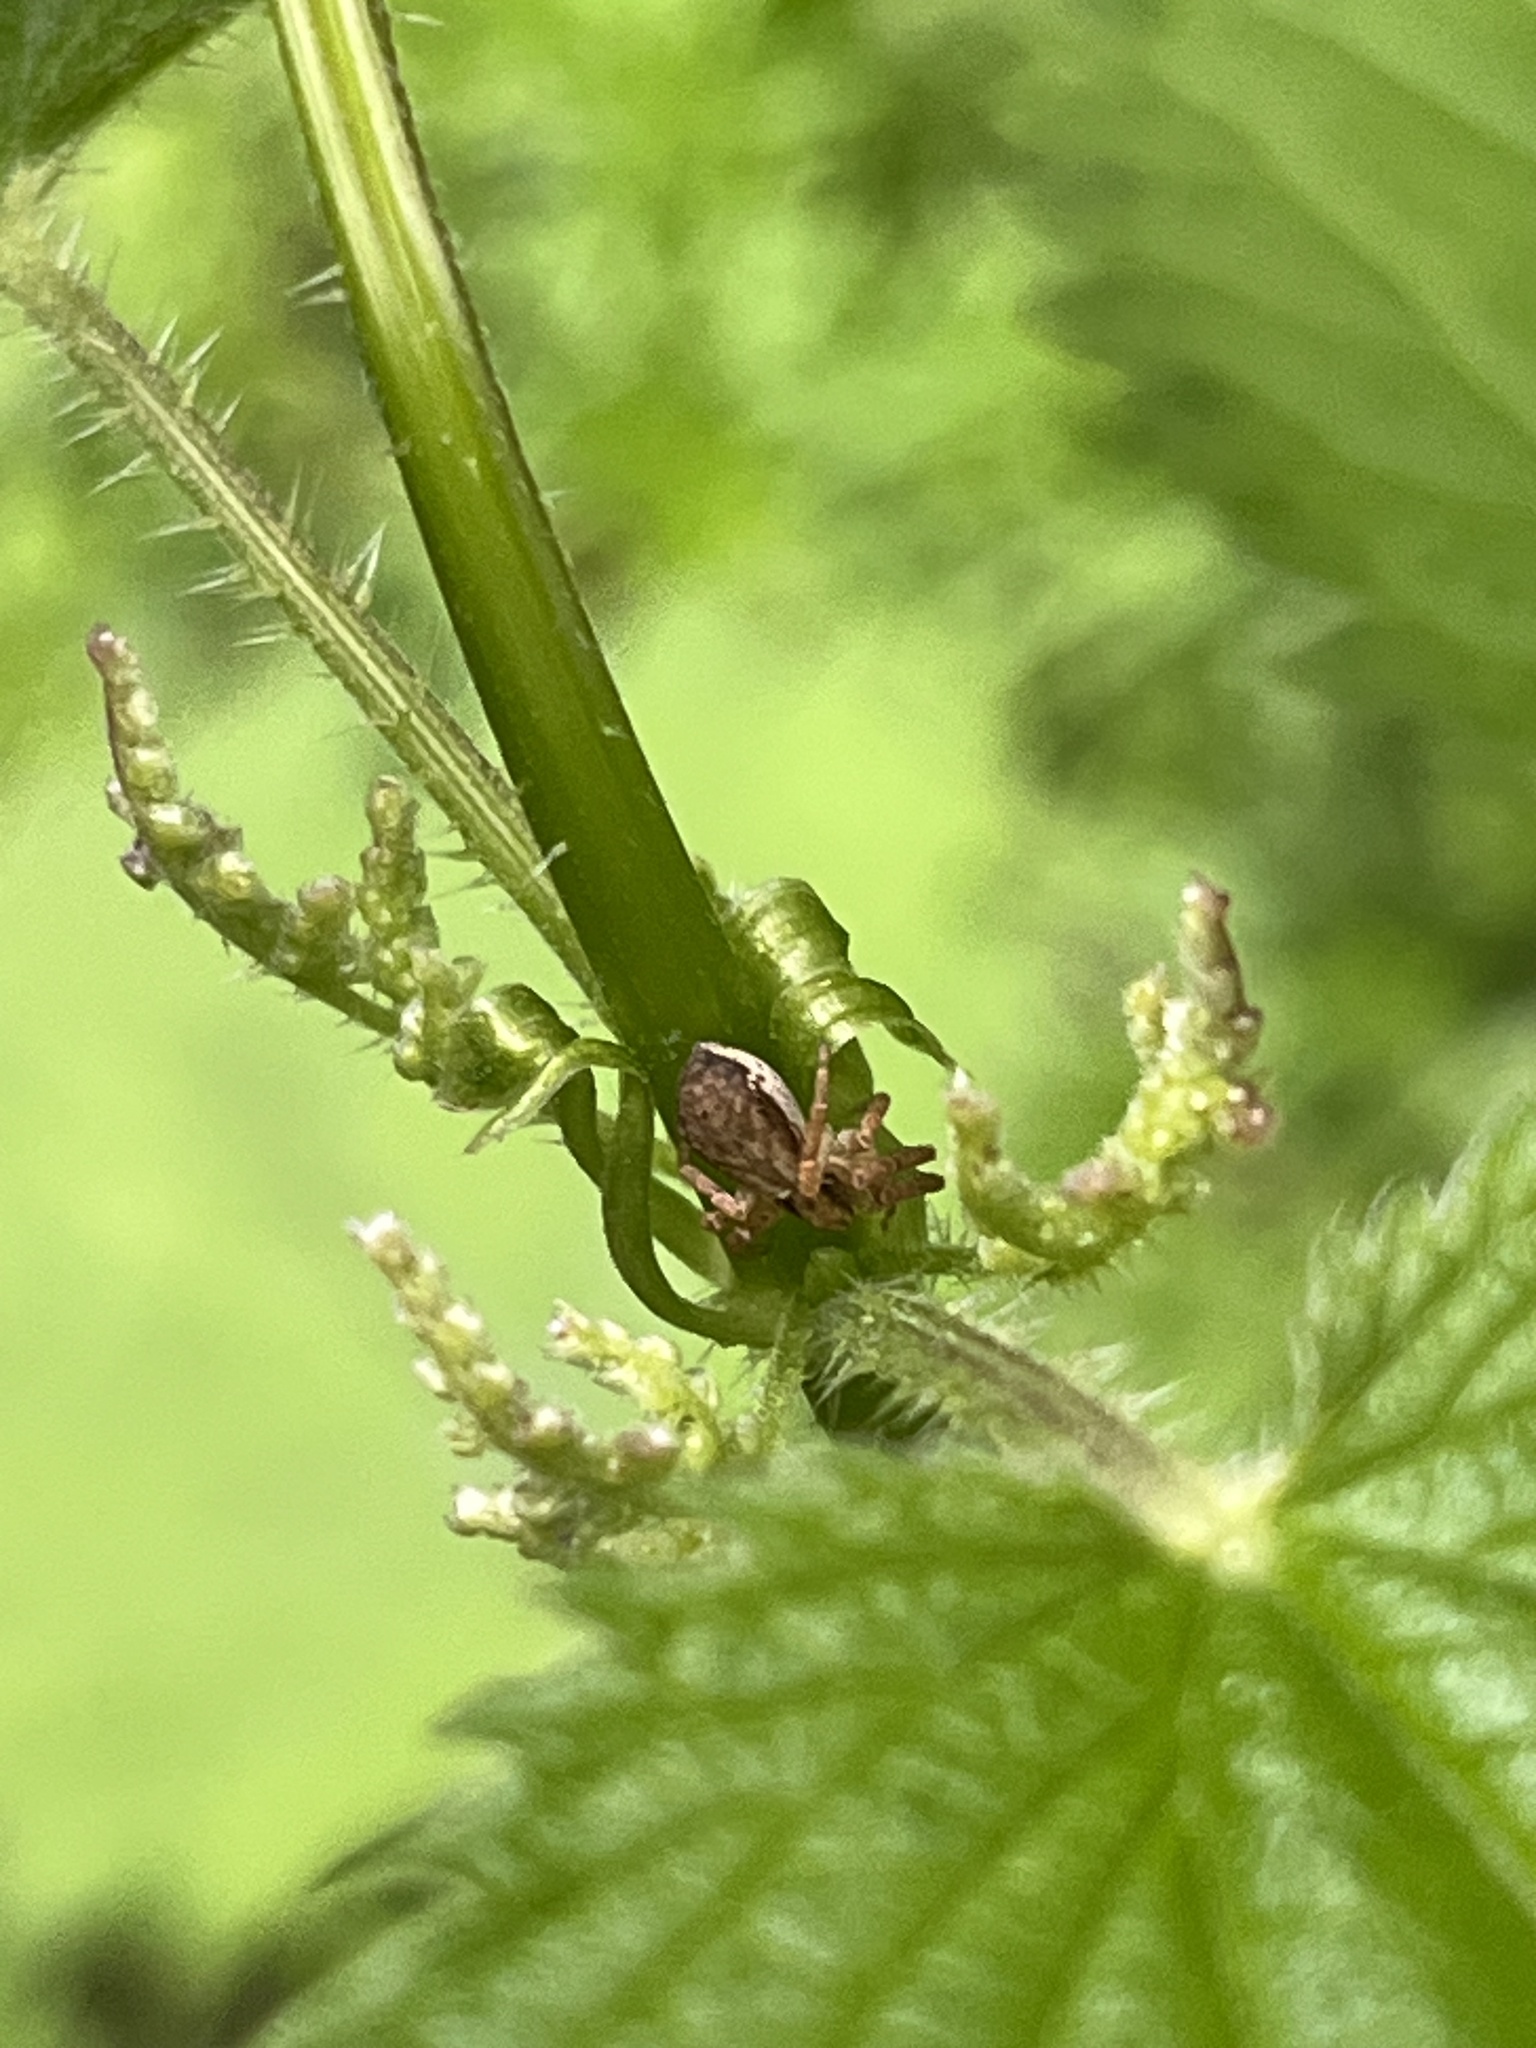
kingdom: Animalia
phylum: Arthropoda
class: Arachnida
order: Araneae
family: Philodromidae
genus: Philodromus
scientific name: Philodromus dispar
